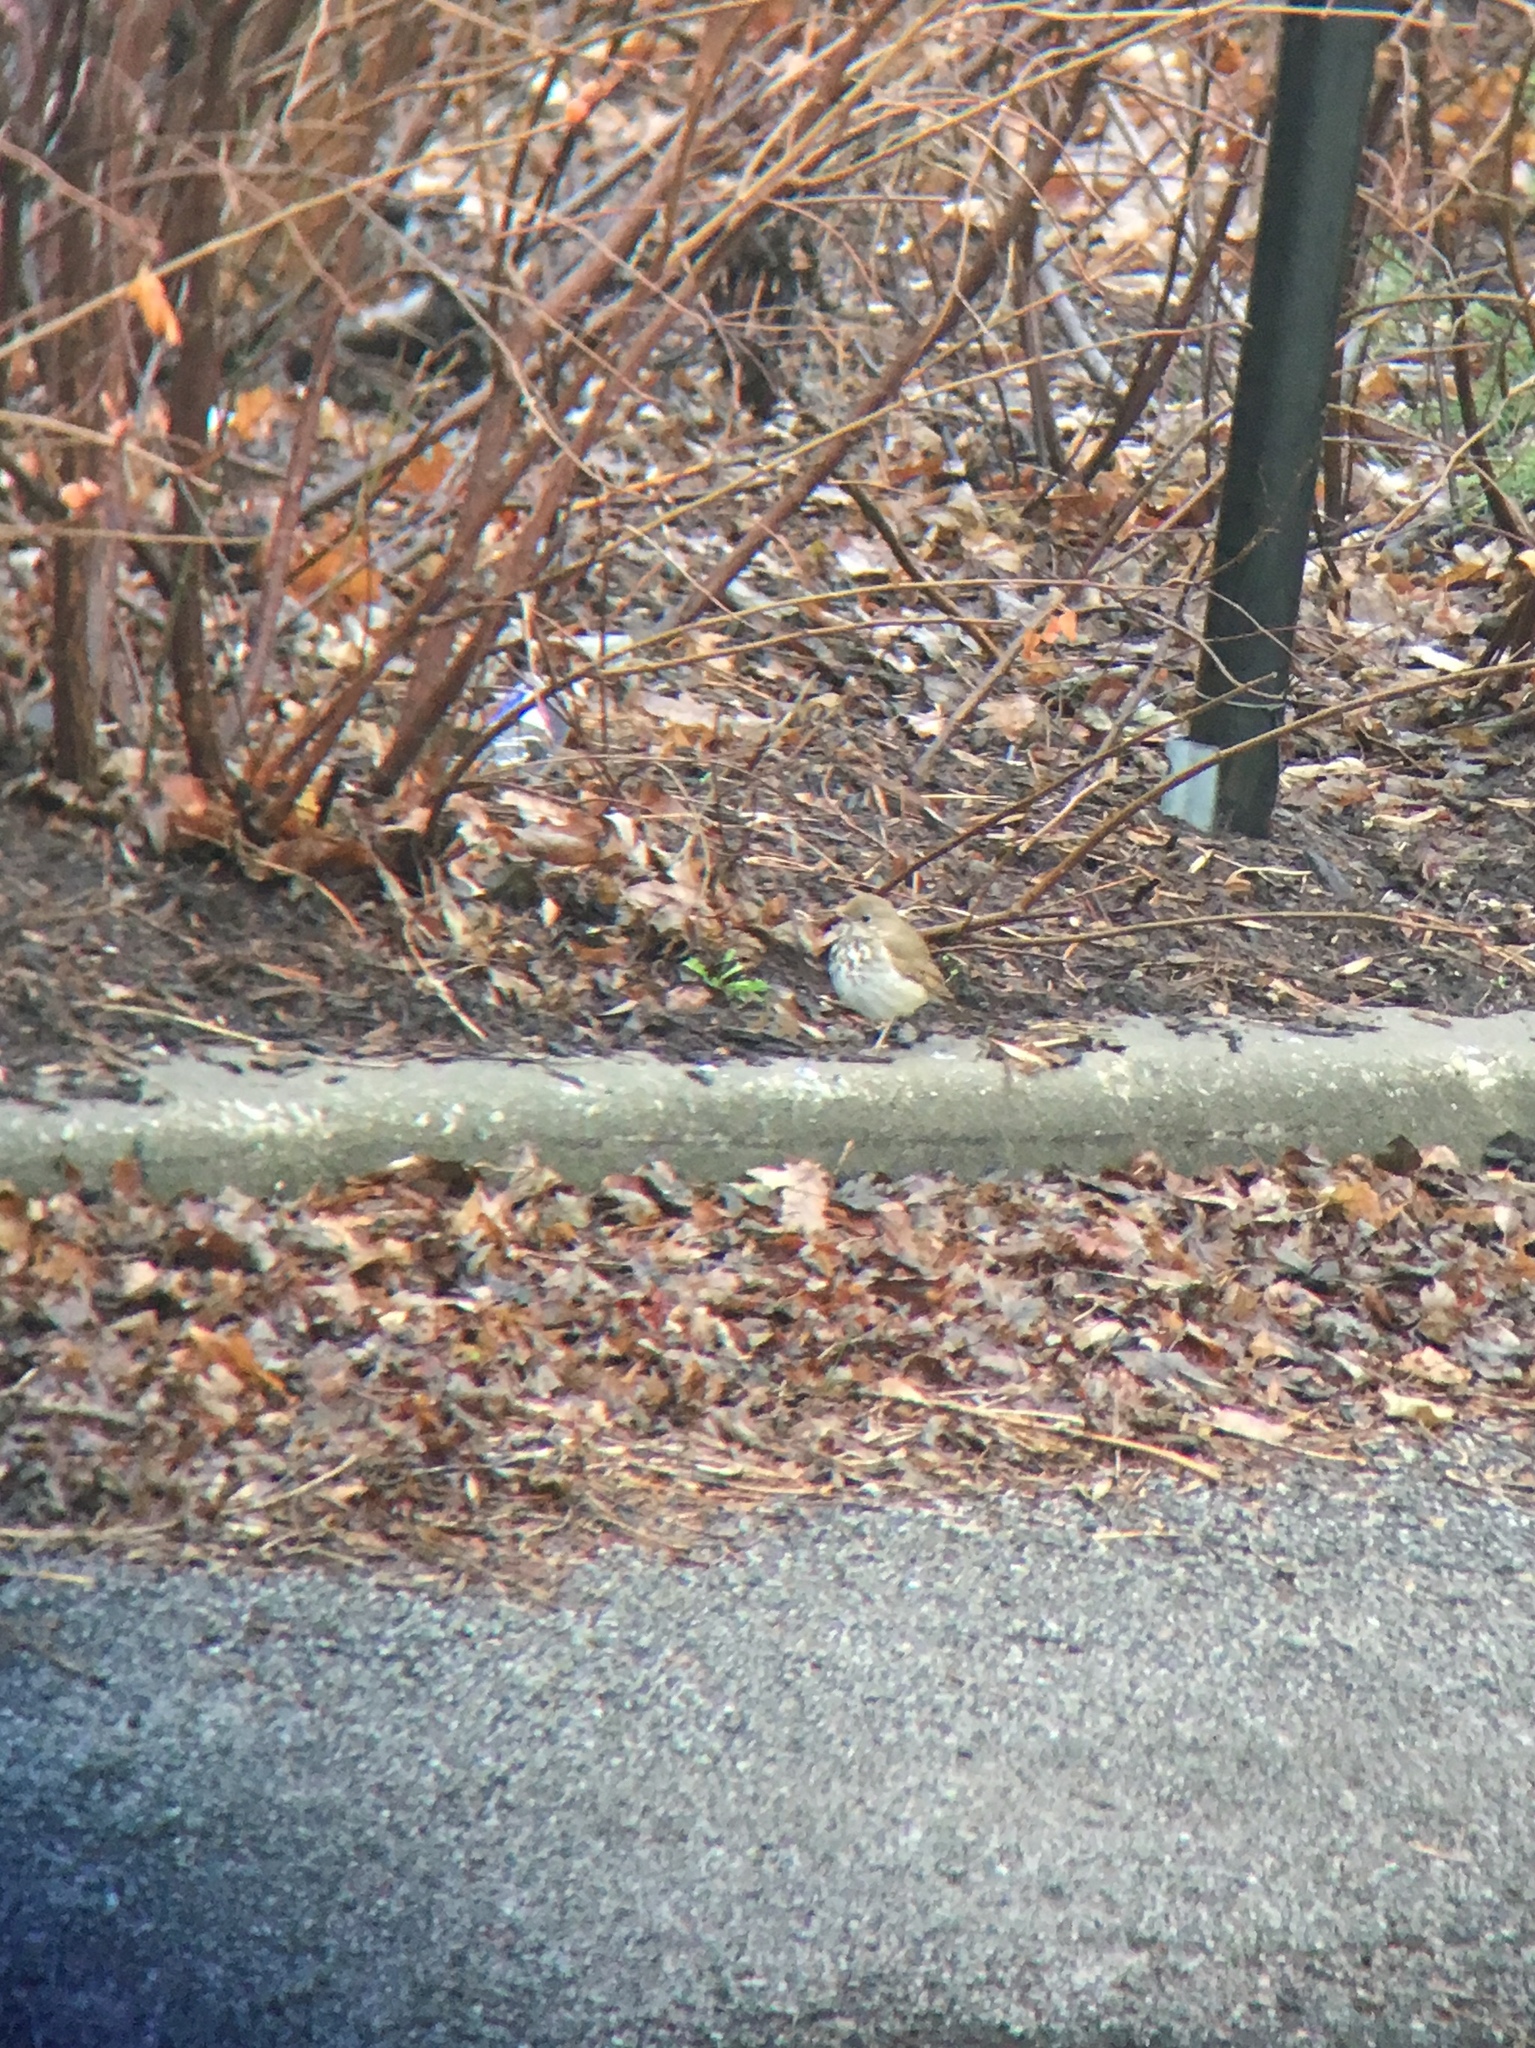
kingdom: Animalia
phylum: Chordata
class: Aves
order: Passeriformes
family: Turdidae
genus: Catharus
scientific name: Catharus guttatus
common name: Hermit thrush
